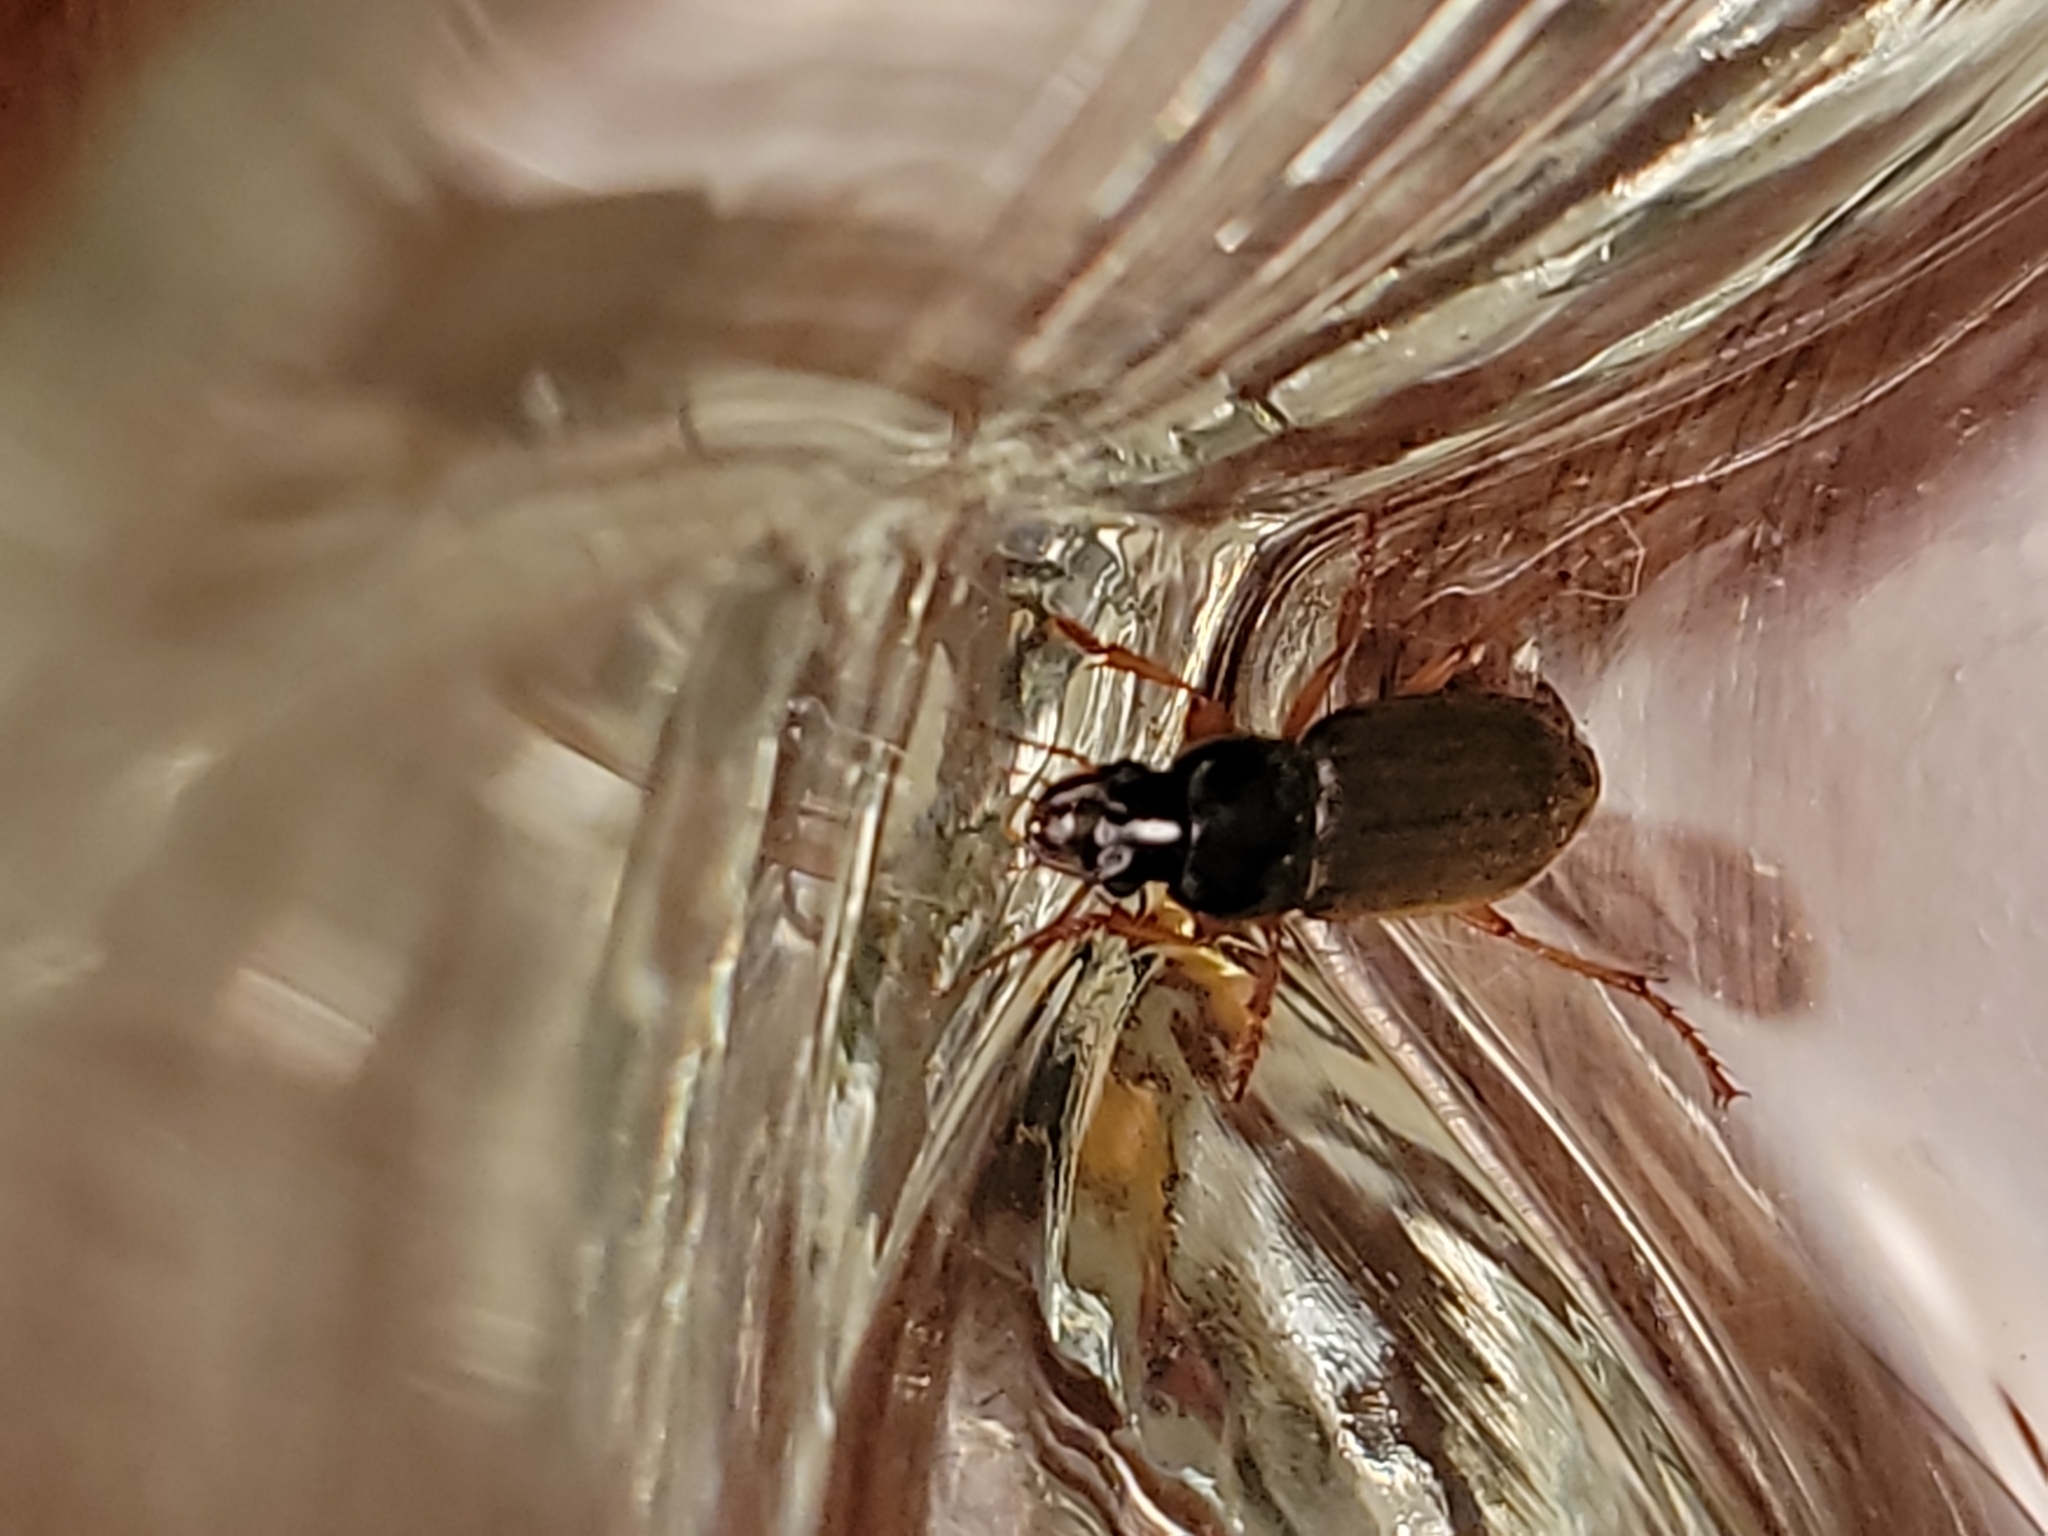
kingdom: Animalia
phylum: Arthropoda
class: Insecta
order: Coleoptera
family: Carabidae
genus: Harpalus
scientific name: Harpalus rufipes
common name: Strawberry harp ground beetle
